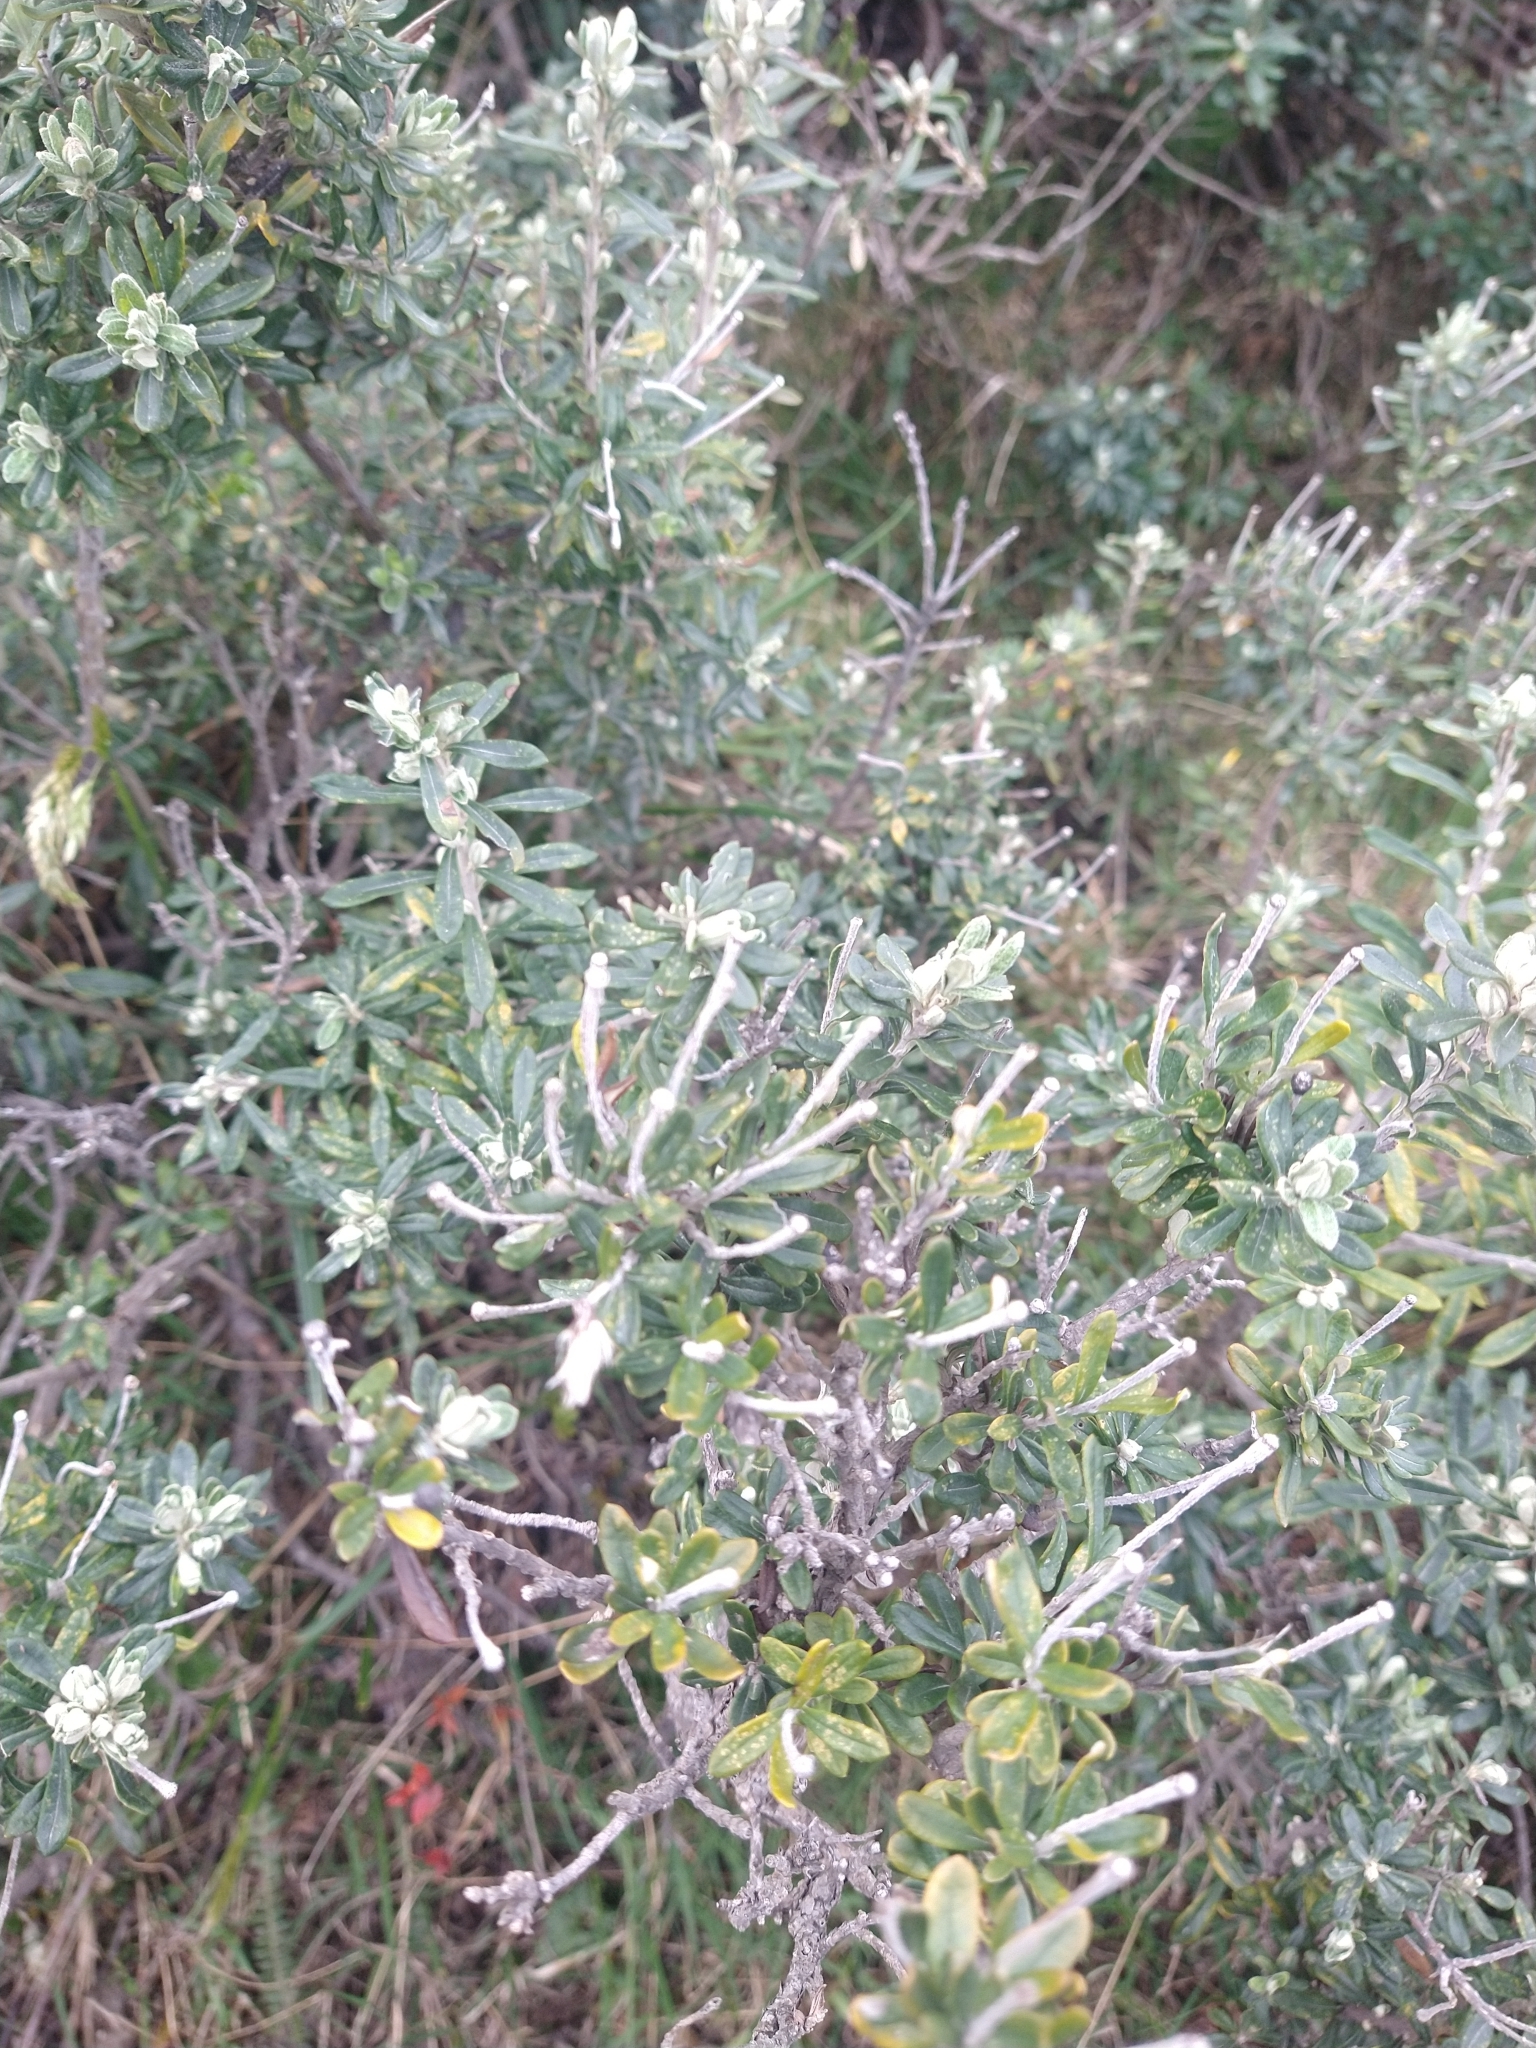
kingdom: Plantae
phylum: Tracheophyta
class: Magnoliopsida
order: Asterales
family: Asteraceae
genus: Chiliotrichum
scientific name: Chiliotrichum diffusum
